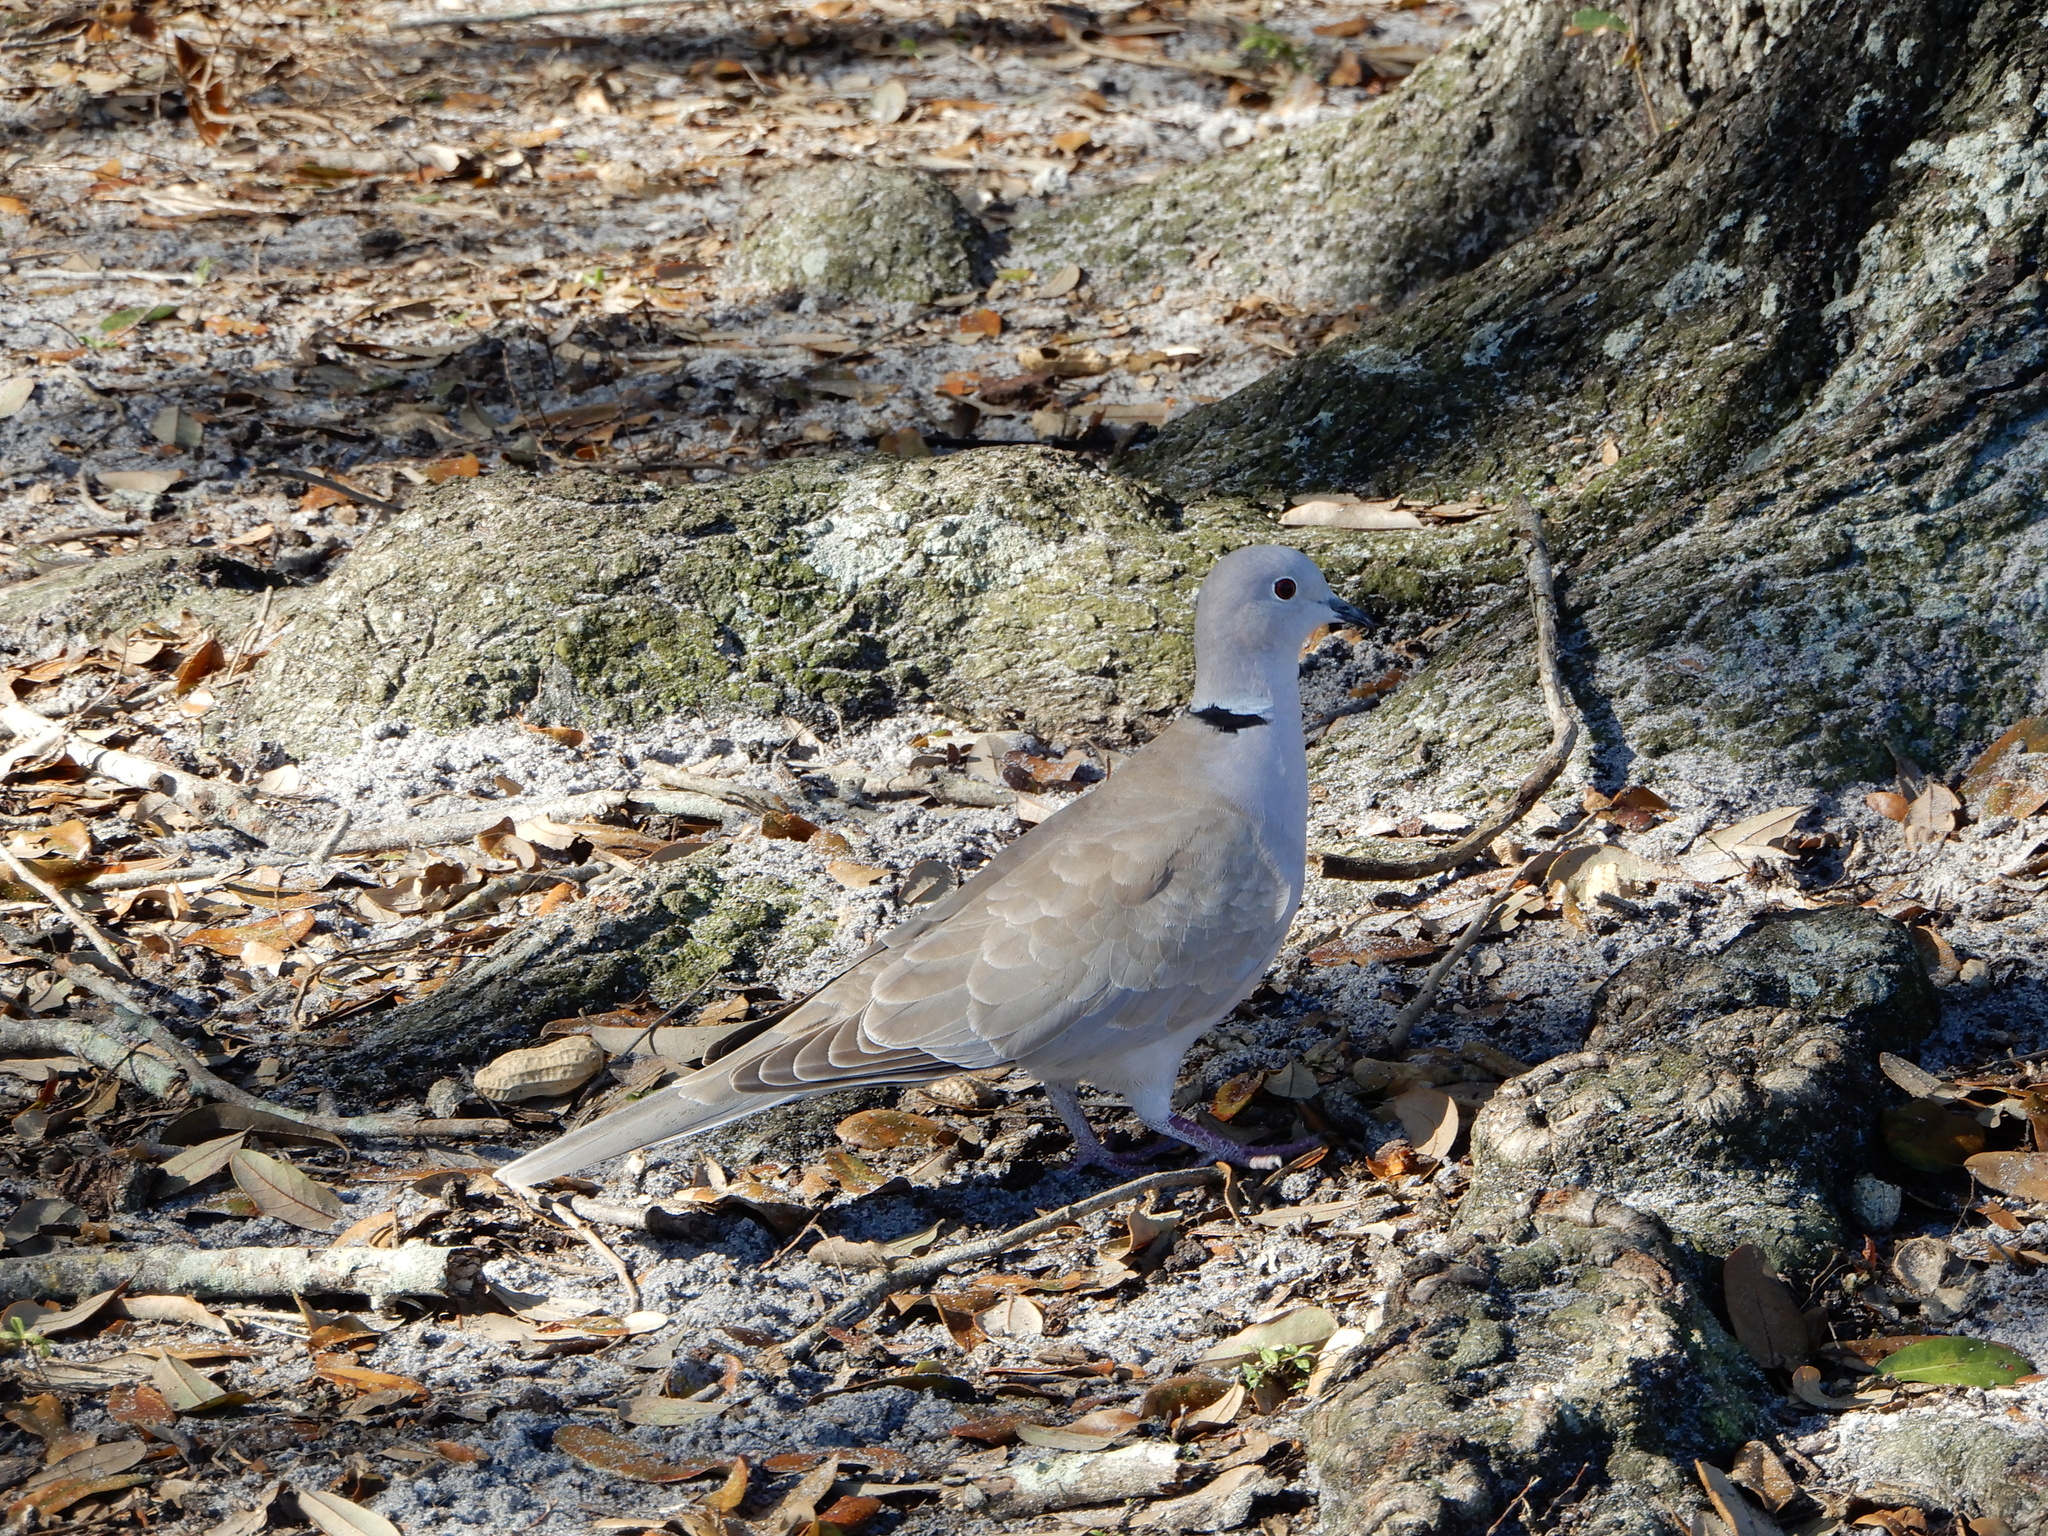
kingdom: Animalia
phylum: Chordata
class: Aves
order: Columbiformes
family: Columbidae
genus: Streptopelia
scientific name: Streptopelia decaocto
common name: Eurasian collared dove
